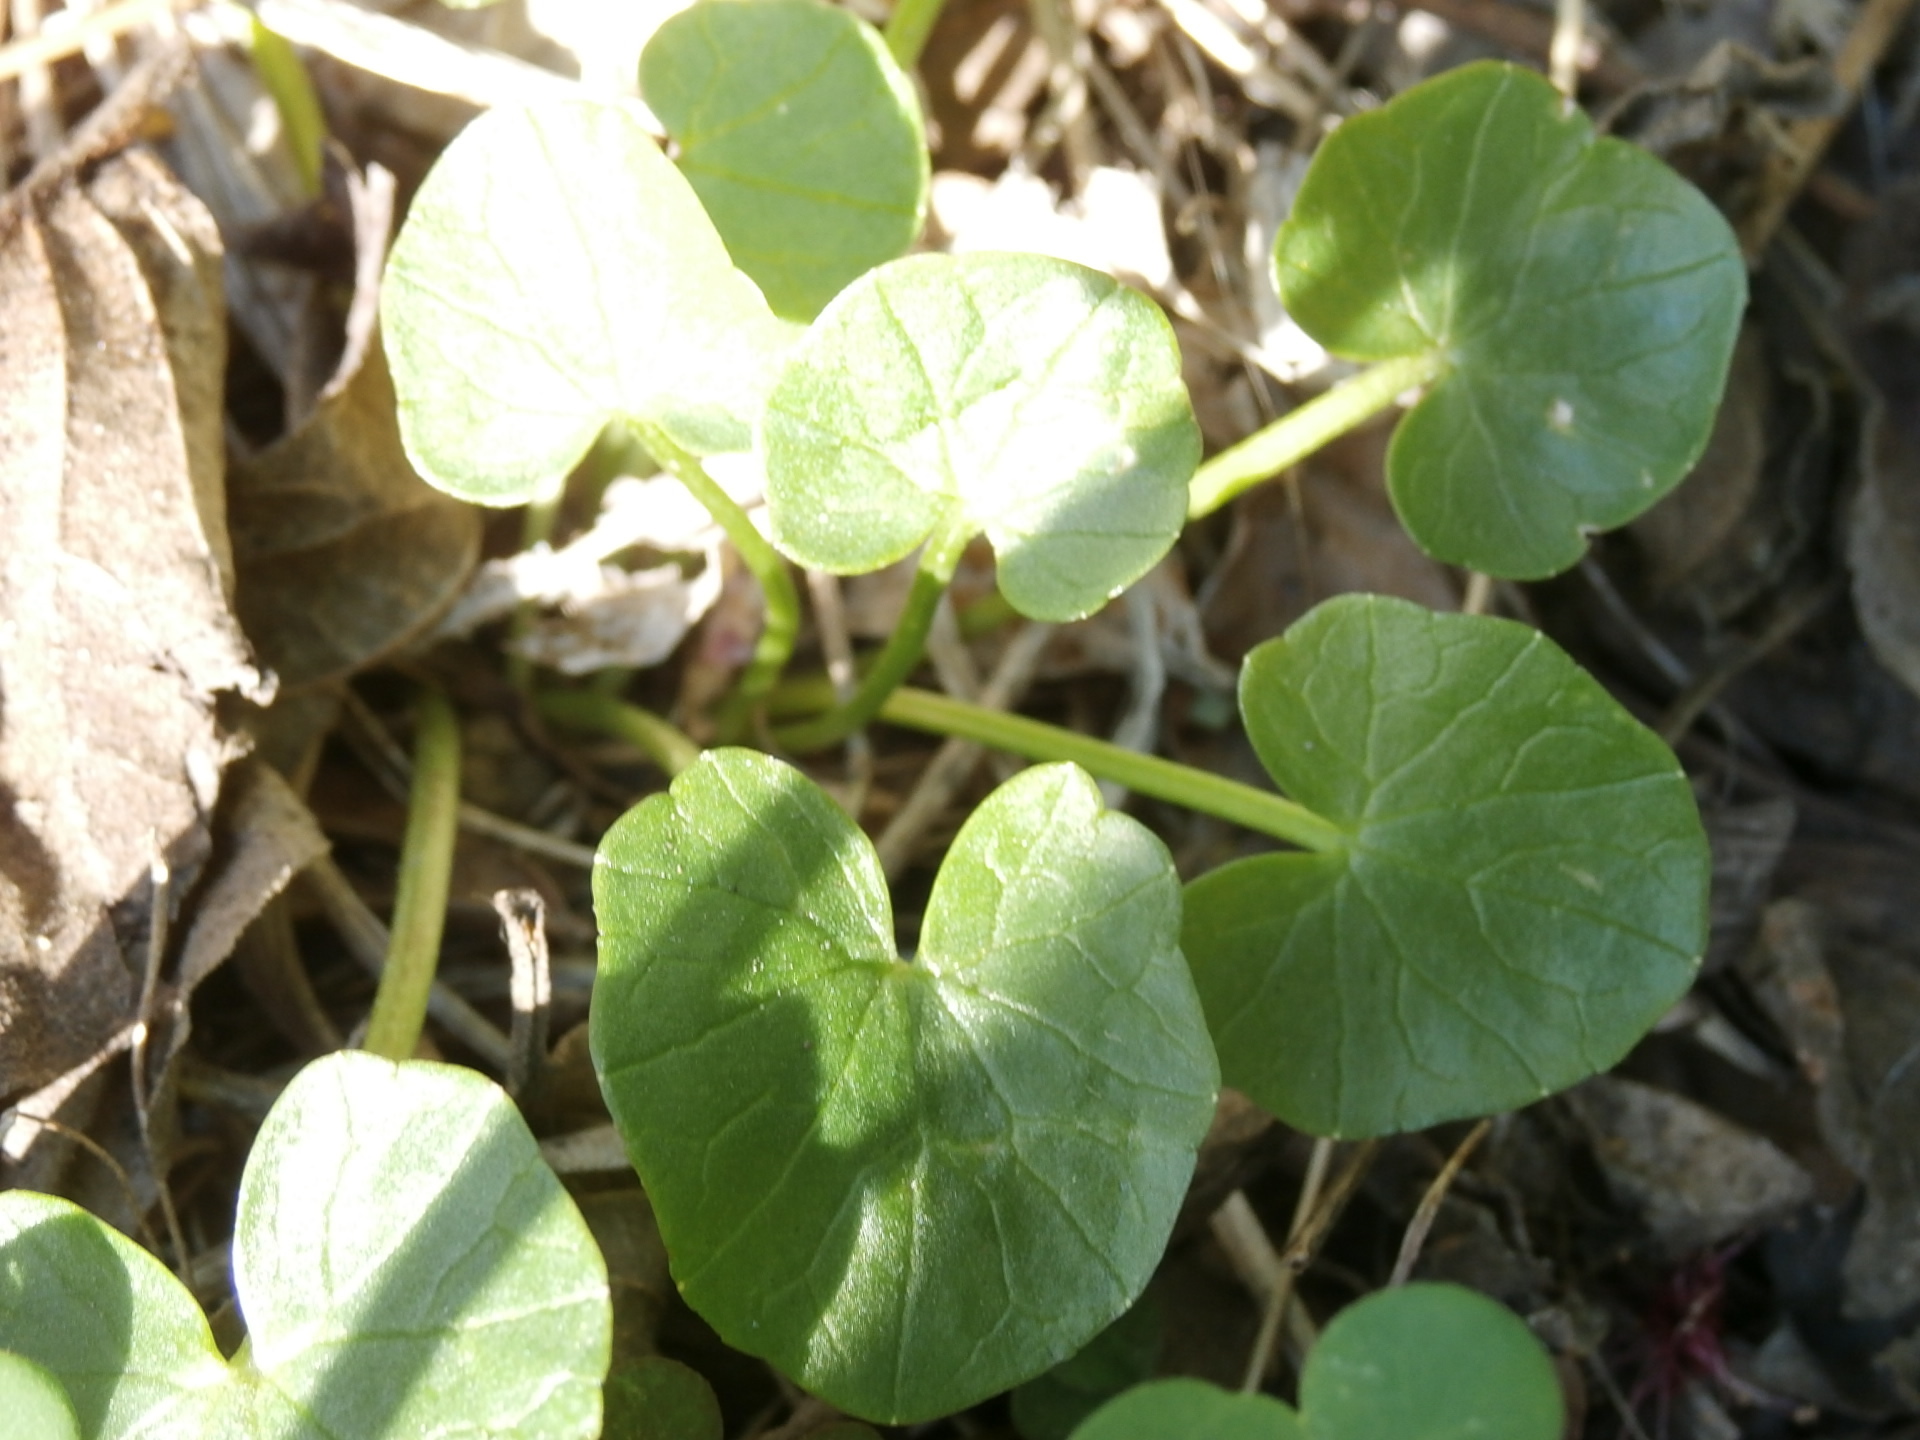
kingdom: Plantae
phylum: Tracheophyta
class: Magnoliopsida
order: Ranunculales
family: Ranunculaceae
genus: Ficaria
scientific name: Ficaria verna
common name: Lesser celandine
